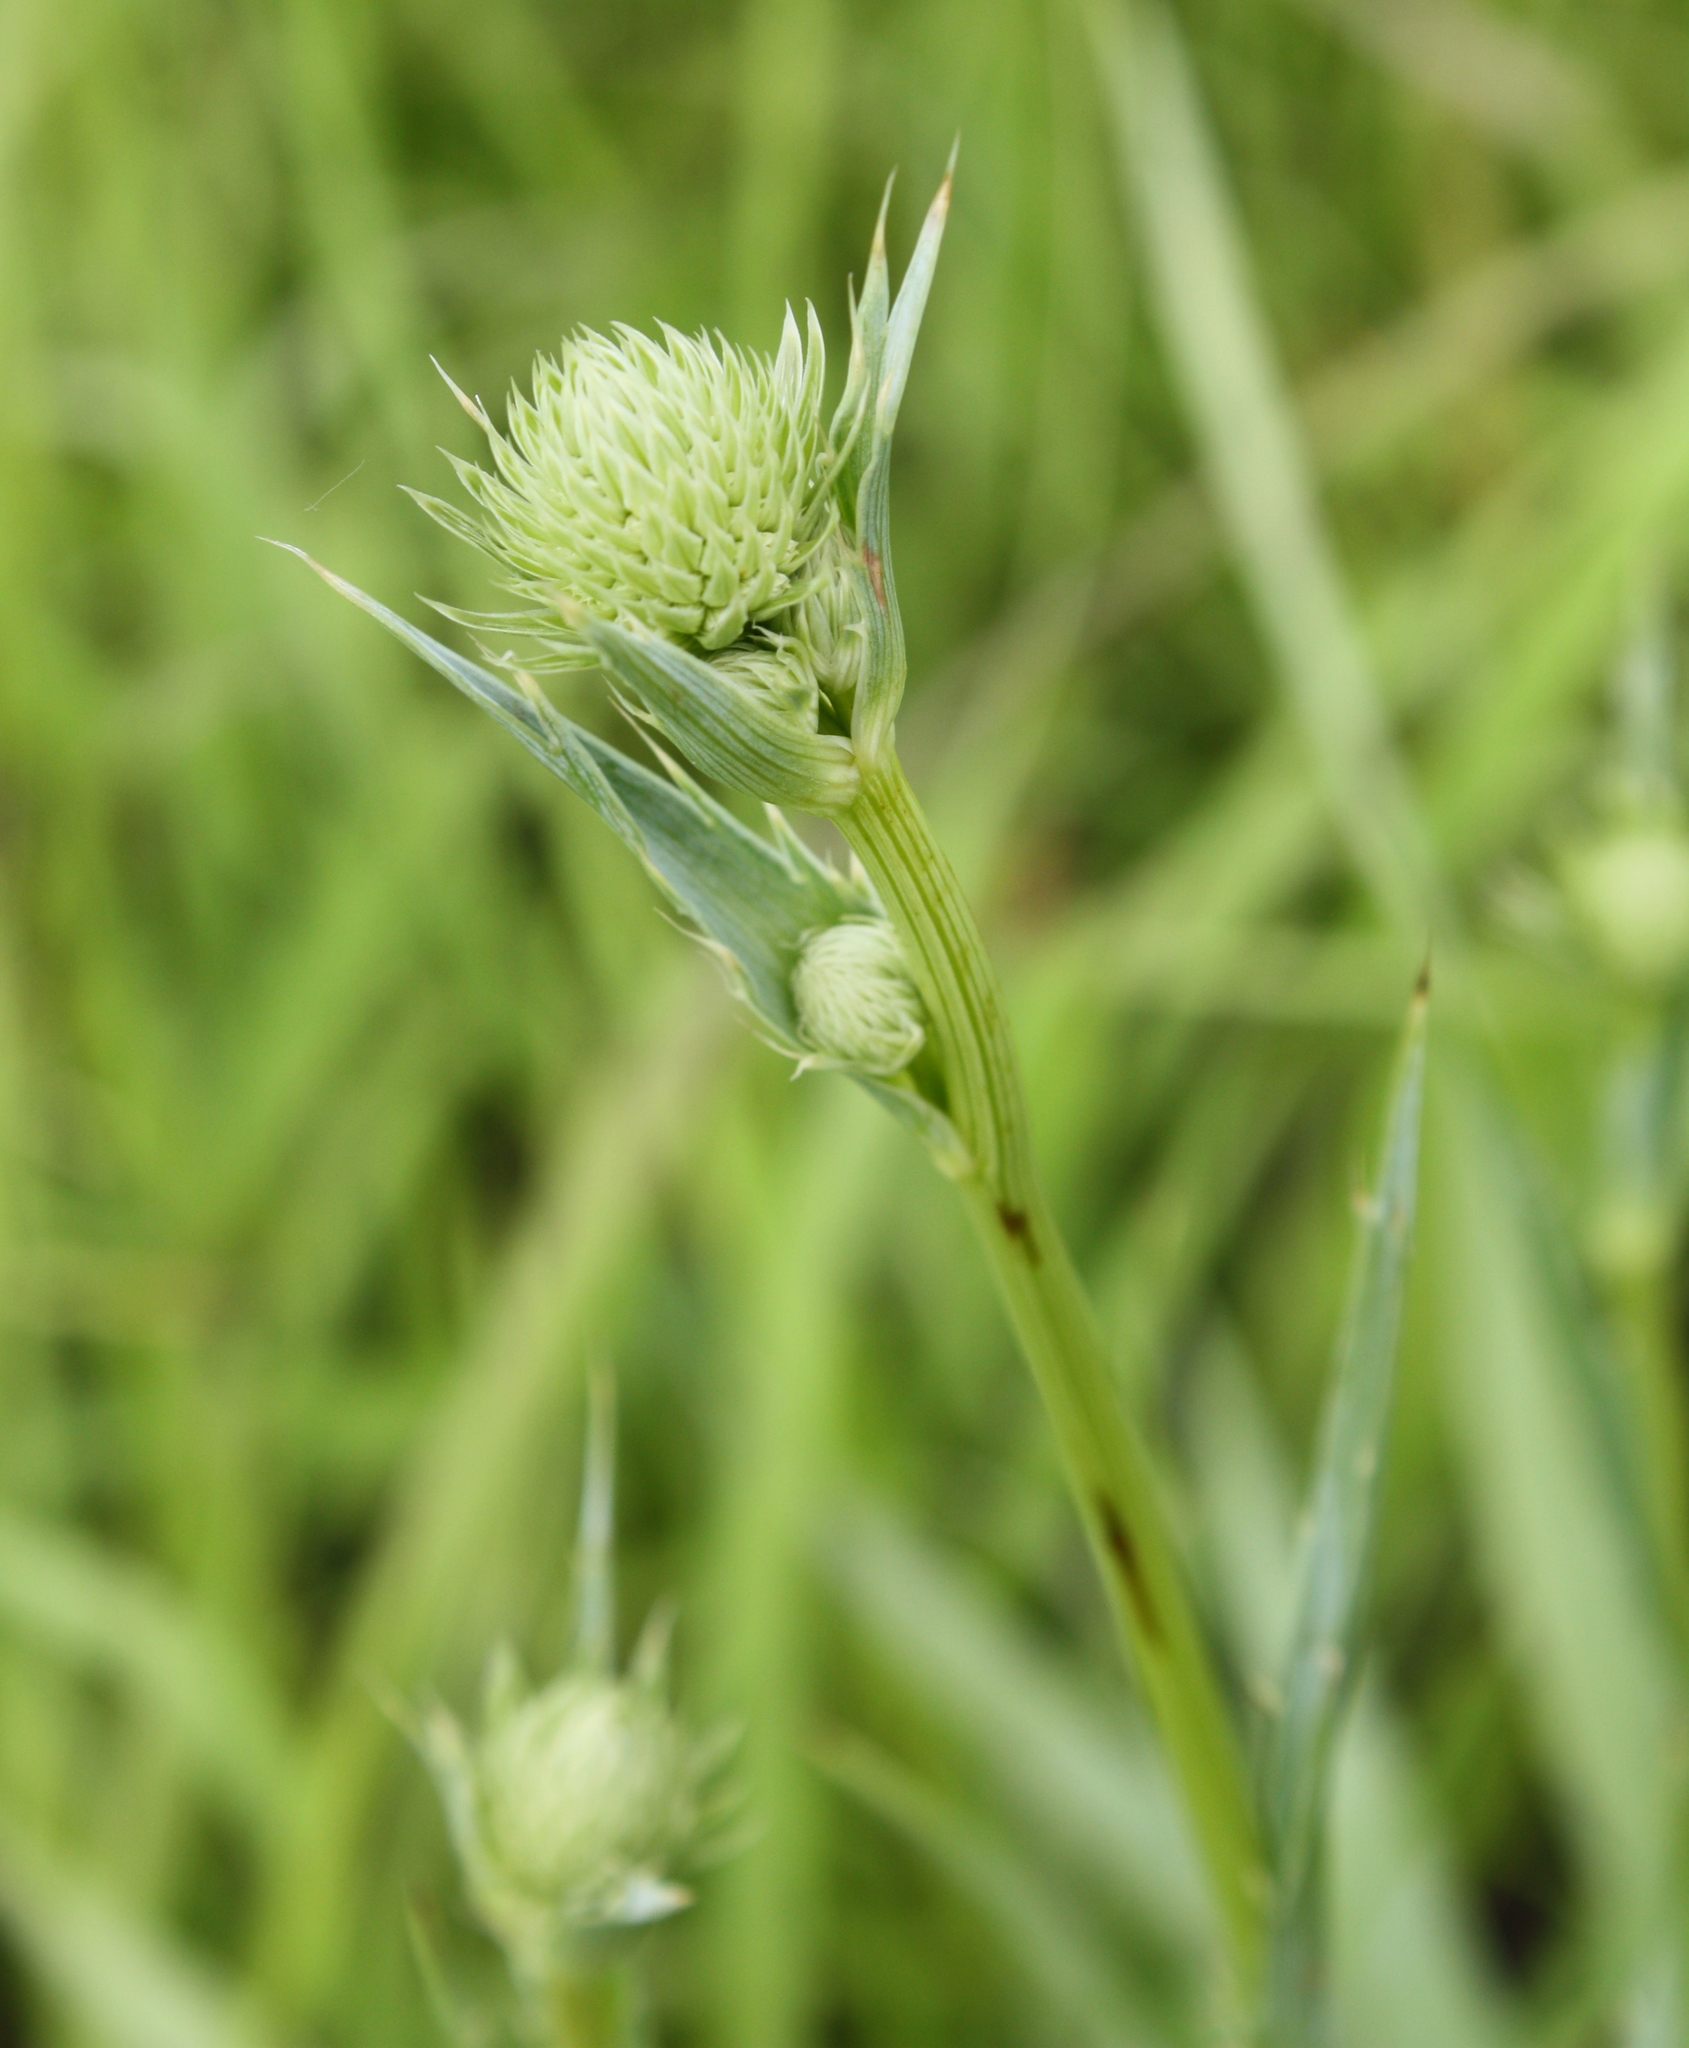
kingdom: Plantae
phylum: Tracheophyta
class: Magnoliopsida
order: Apiales
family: Apiaceae
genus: Eryngium
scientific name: Eryngium yuccifolium
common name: Button eryngo
